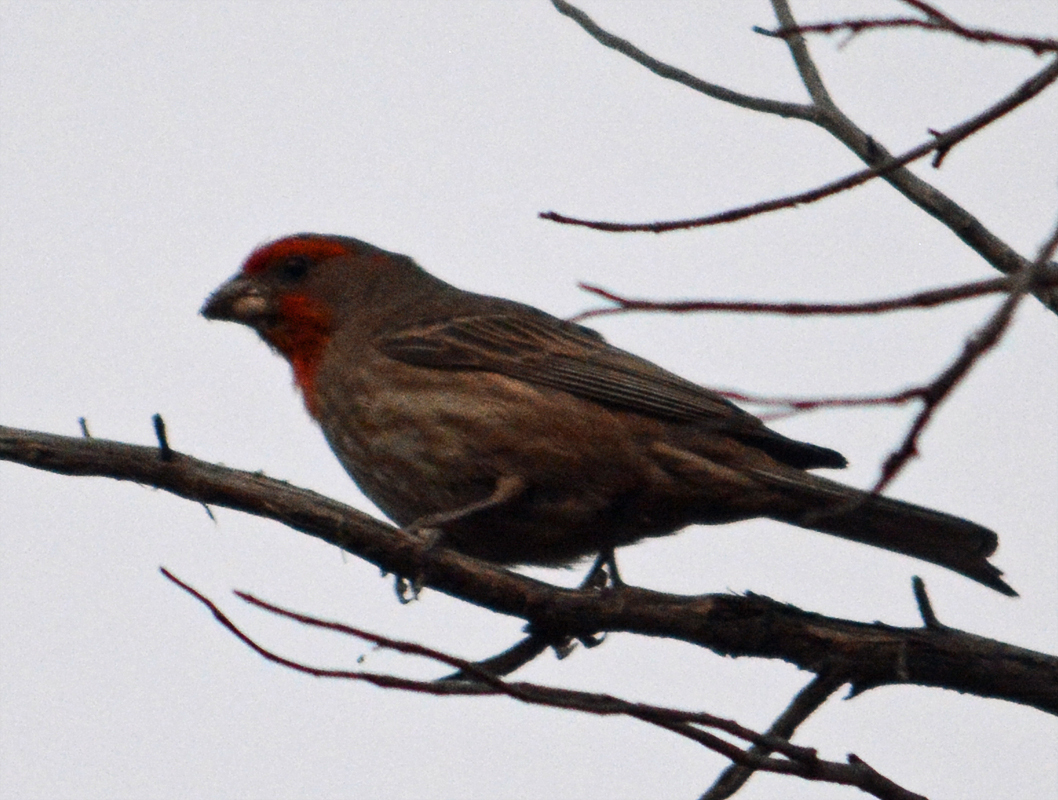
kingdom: Animalia
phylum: Chordata
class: Aves
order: Passeriformes
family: Fringillidae
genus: Haemorhous
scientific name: Haemorhous mexicanus
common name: House finch
